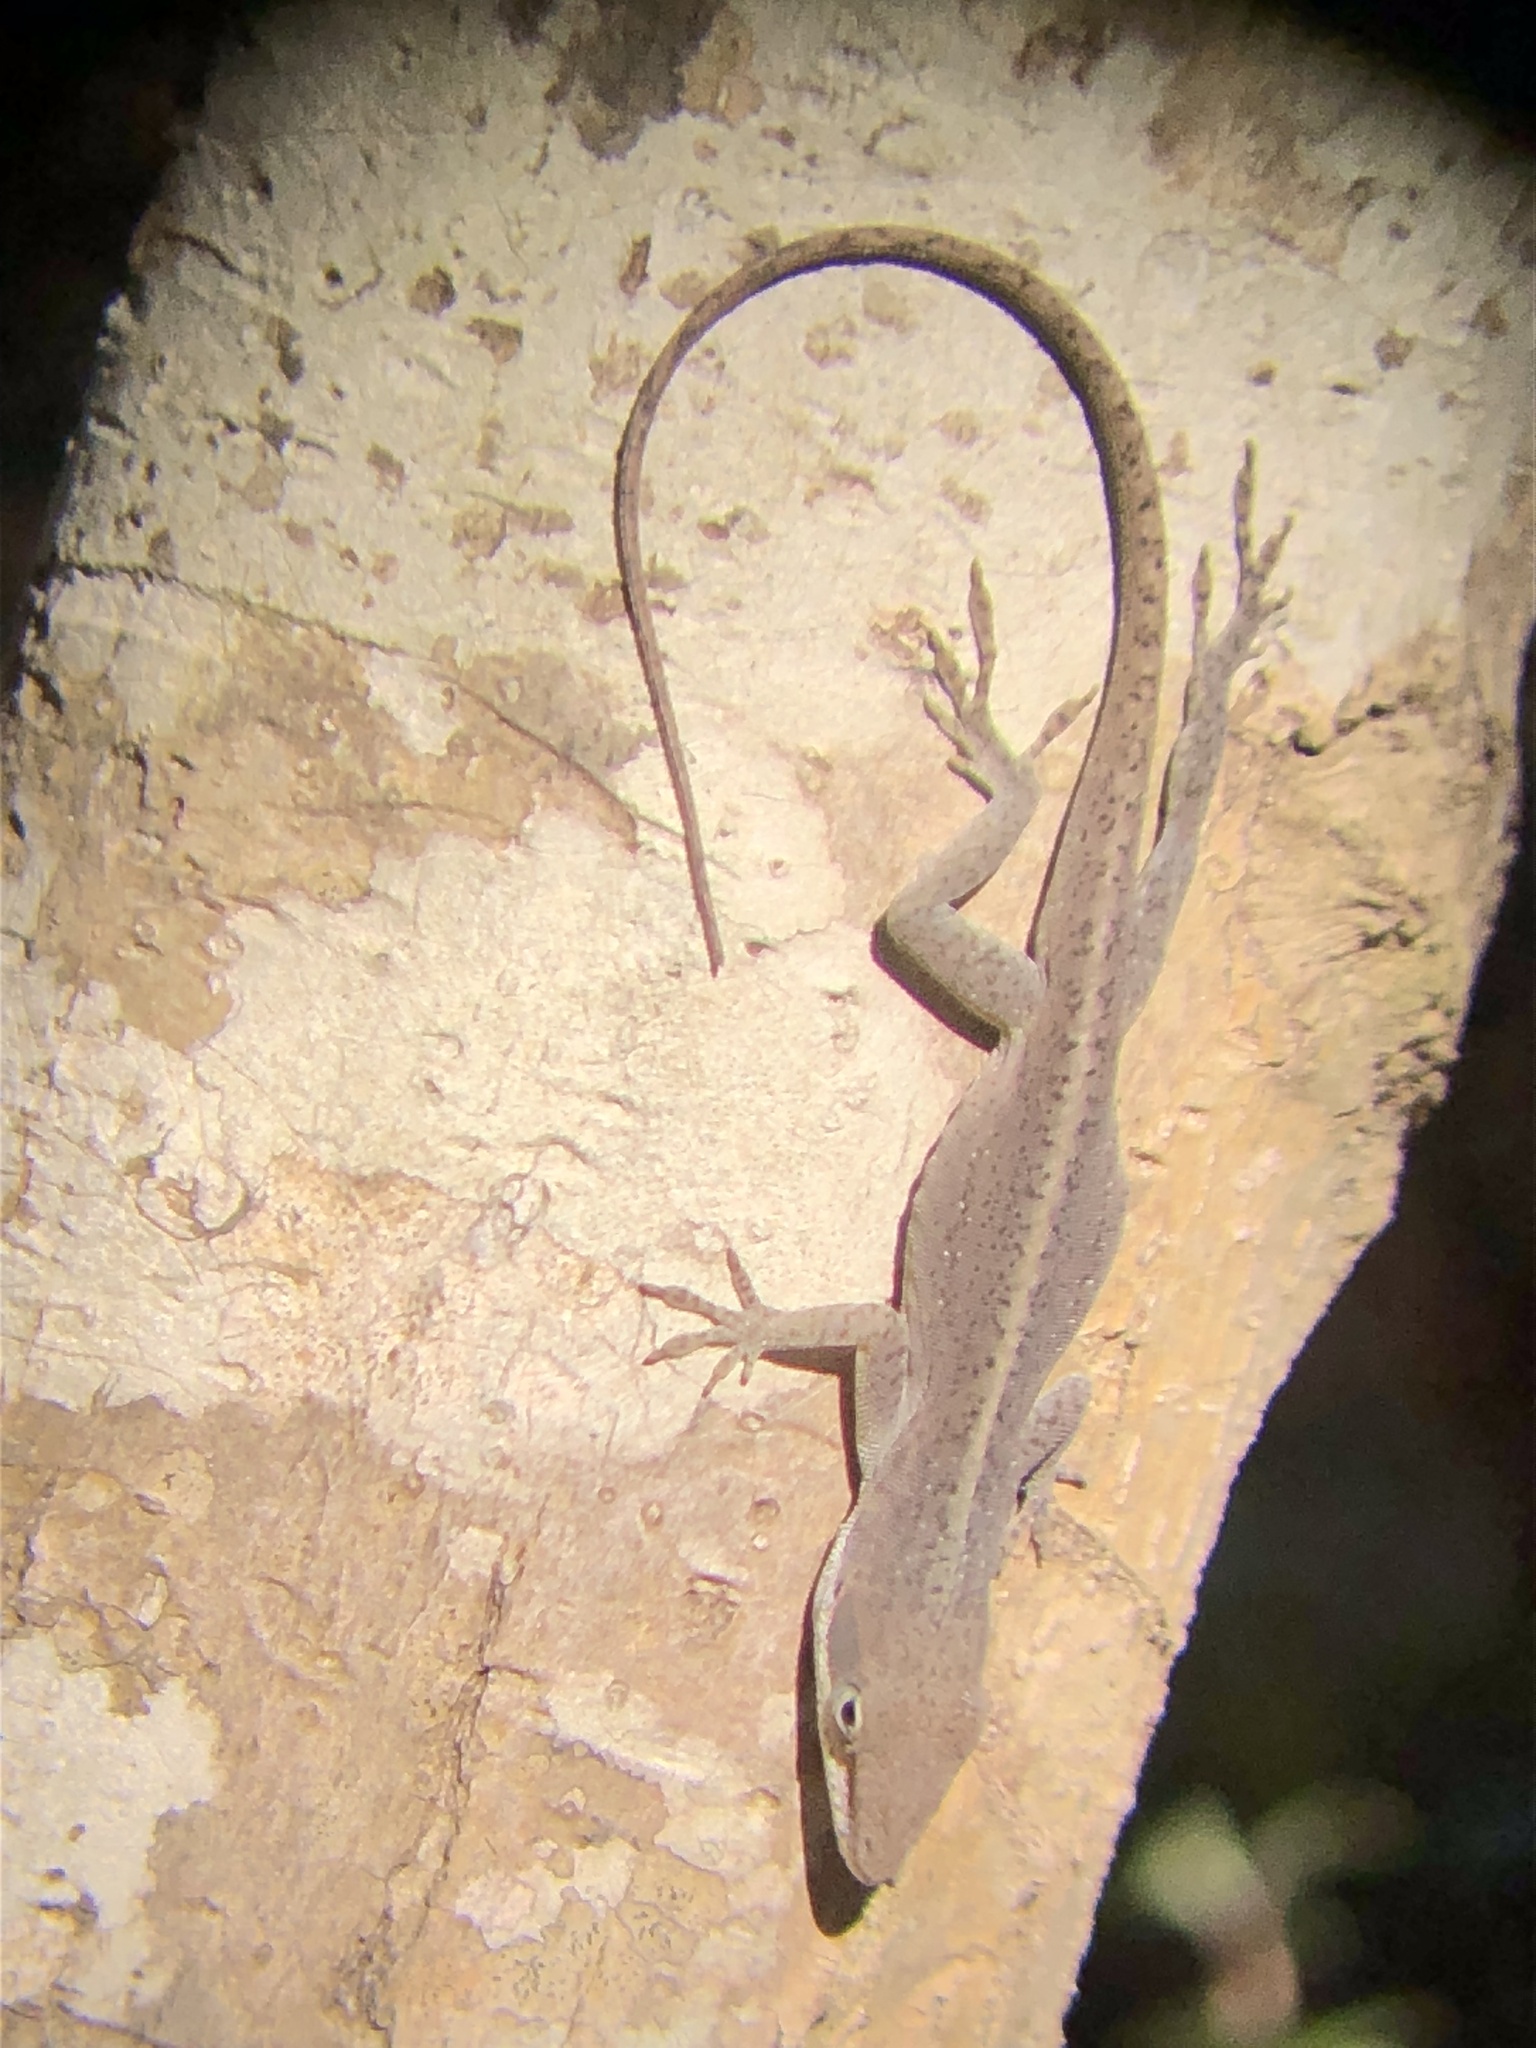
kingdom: Animalia
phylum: Chordata
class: Squamata
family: Dactyloidae
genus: Anolis
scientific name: Anolis carolinensis
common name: Green anole
